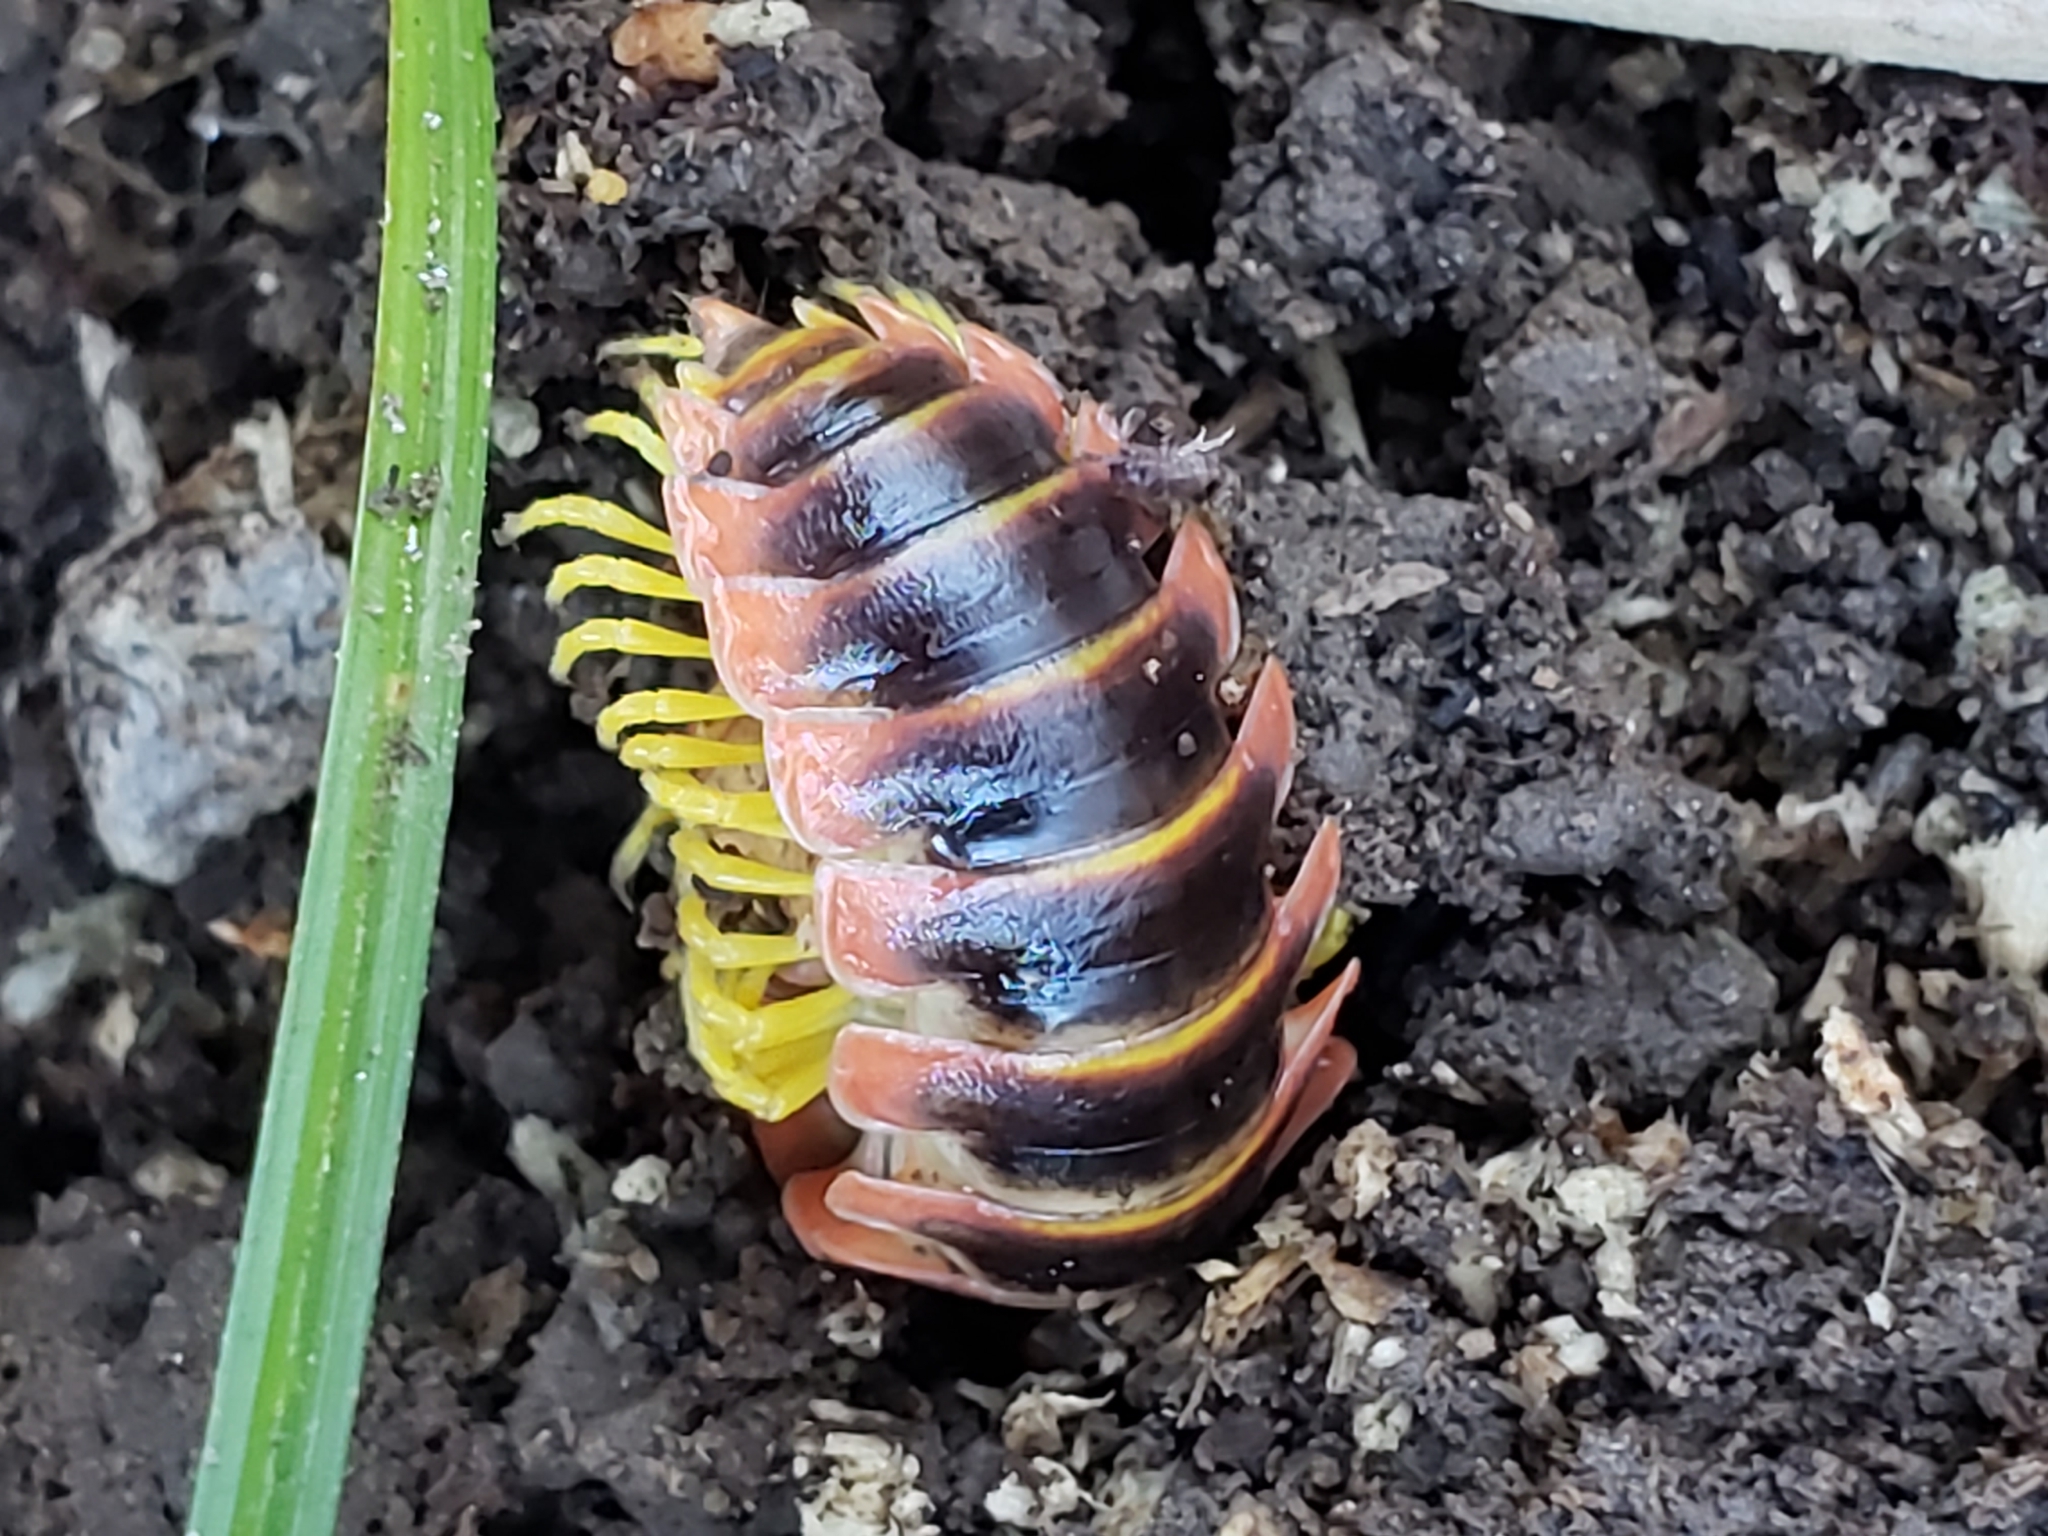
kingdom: Animalia
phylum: Arthropoda
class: Diplopoda
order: Polydesmida
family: Xystodesmidae
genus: Apheloria
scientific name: Apheloria virginiensis
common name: Black-and-gold flat millipede
